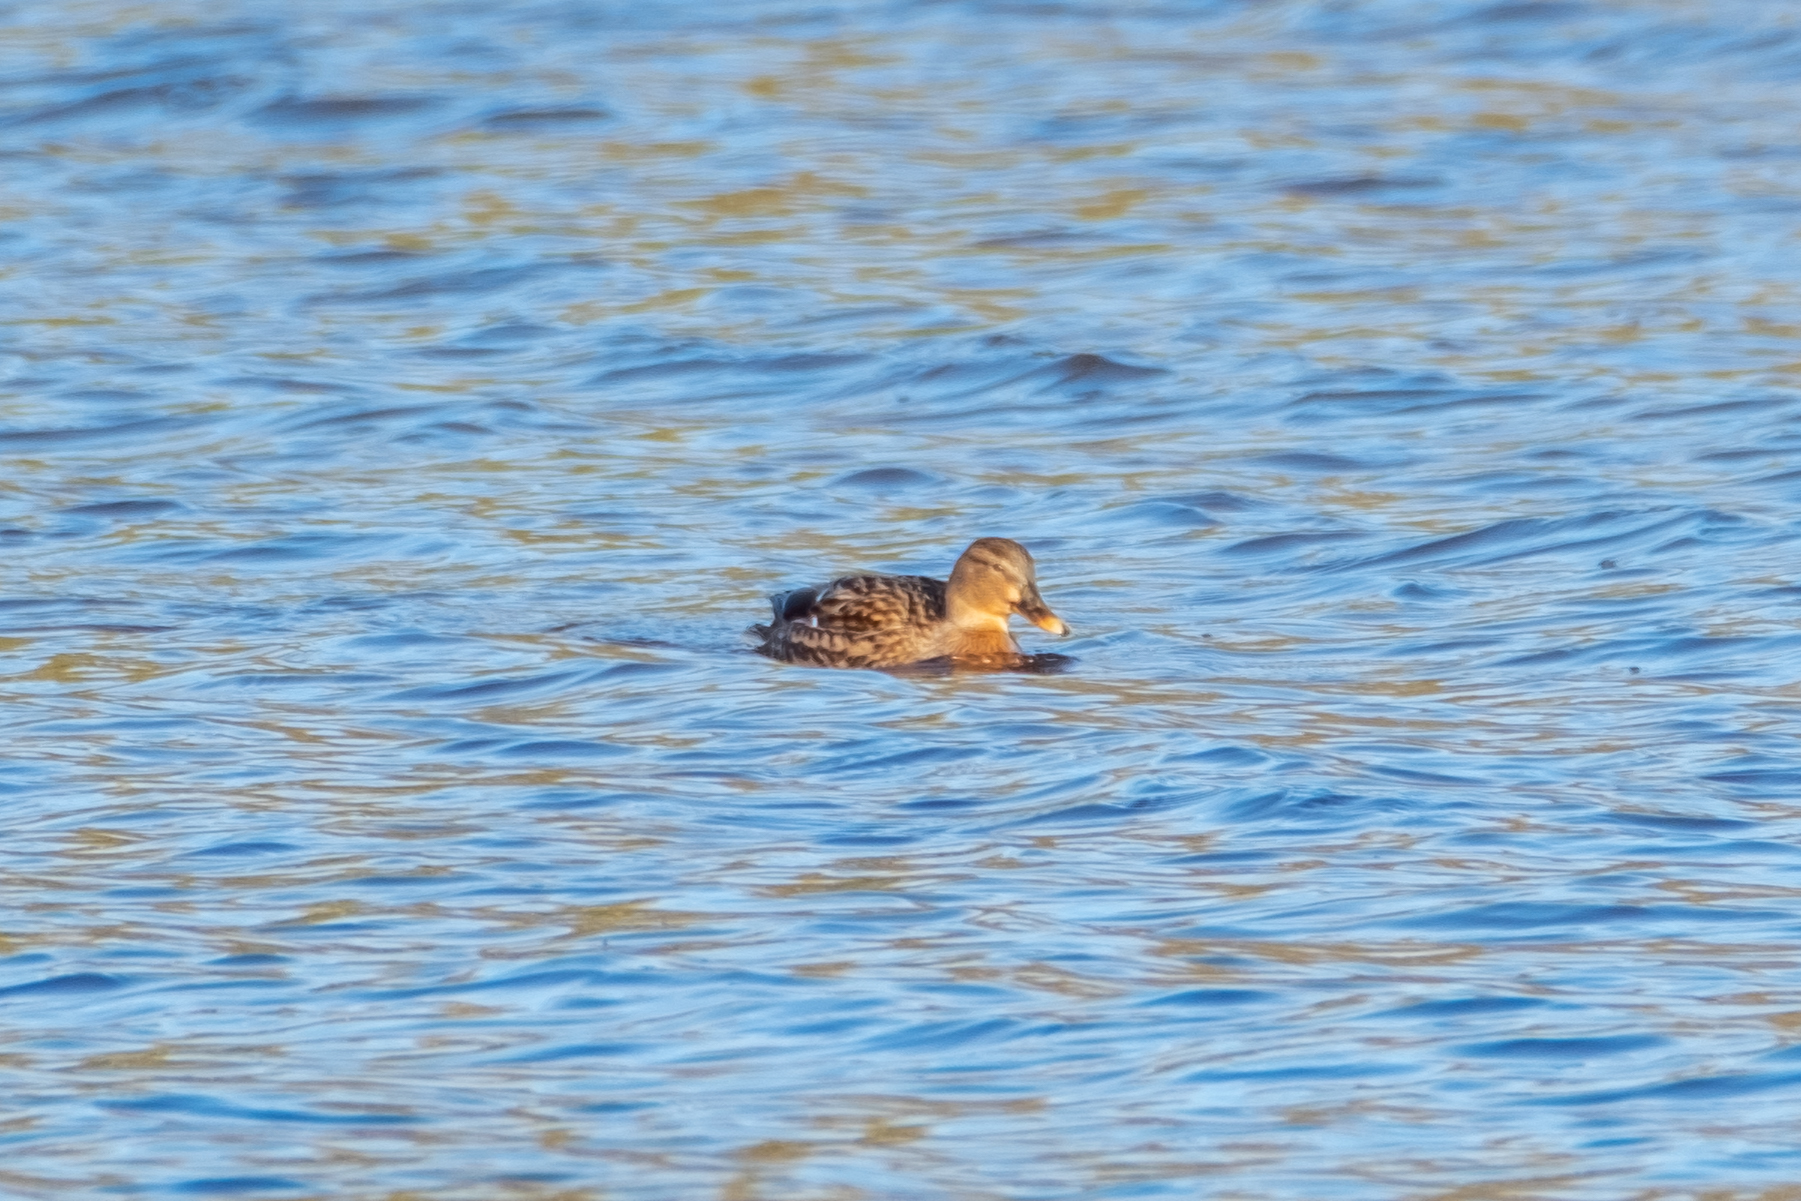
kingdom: Animalia
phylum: Chordata
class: Aves
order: Anseriformes
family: Anatidae
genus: Anas
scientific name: Anas platyrhynchos
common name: Mallard
